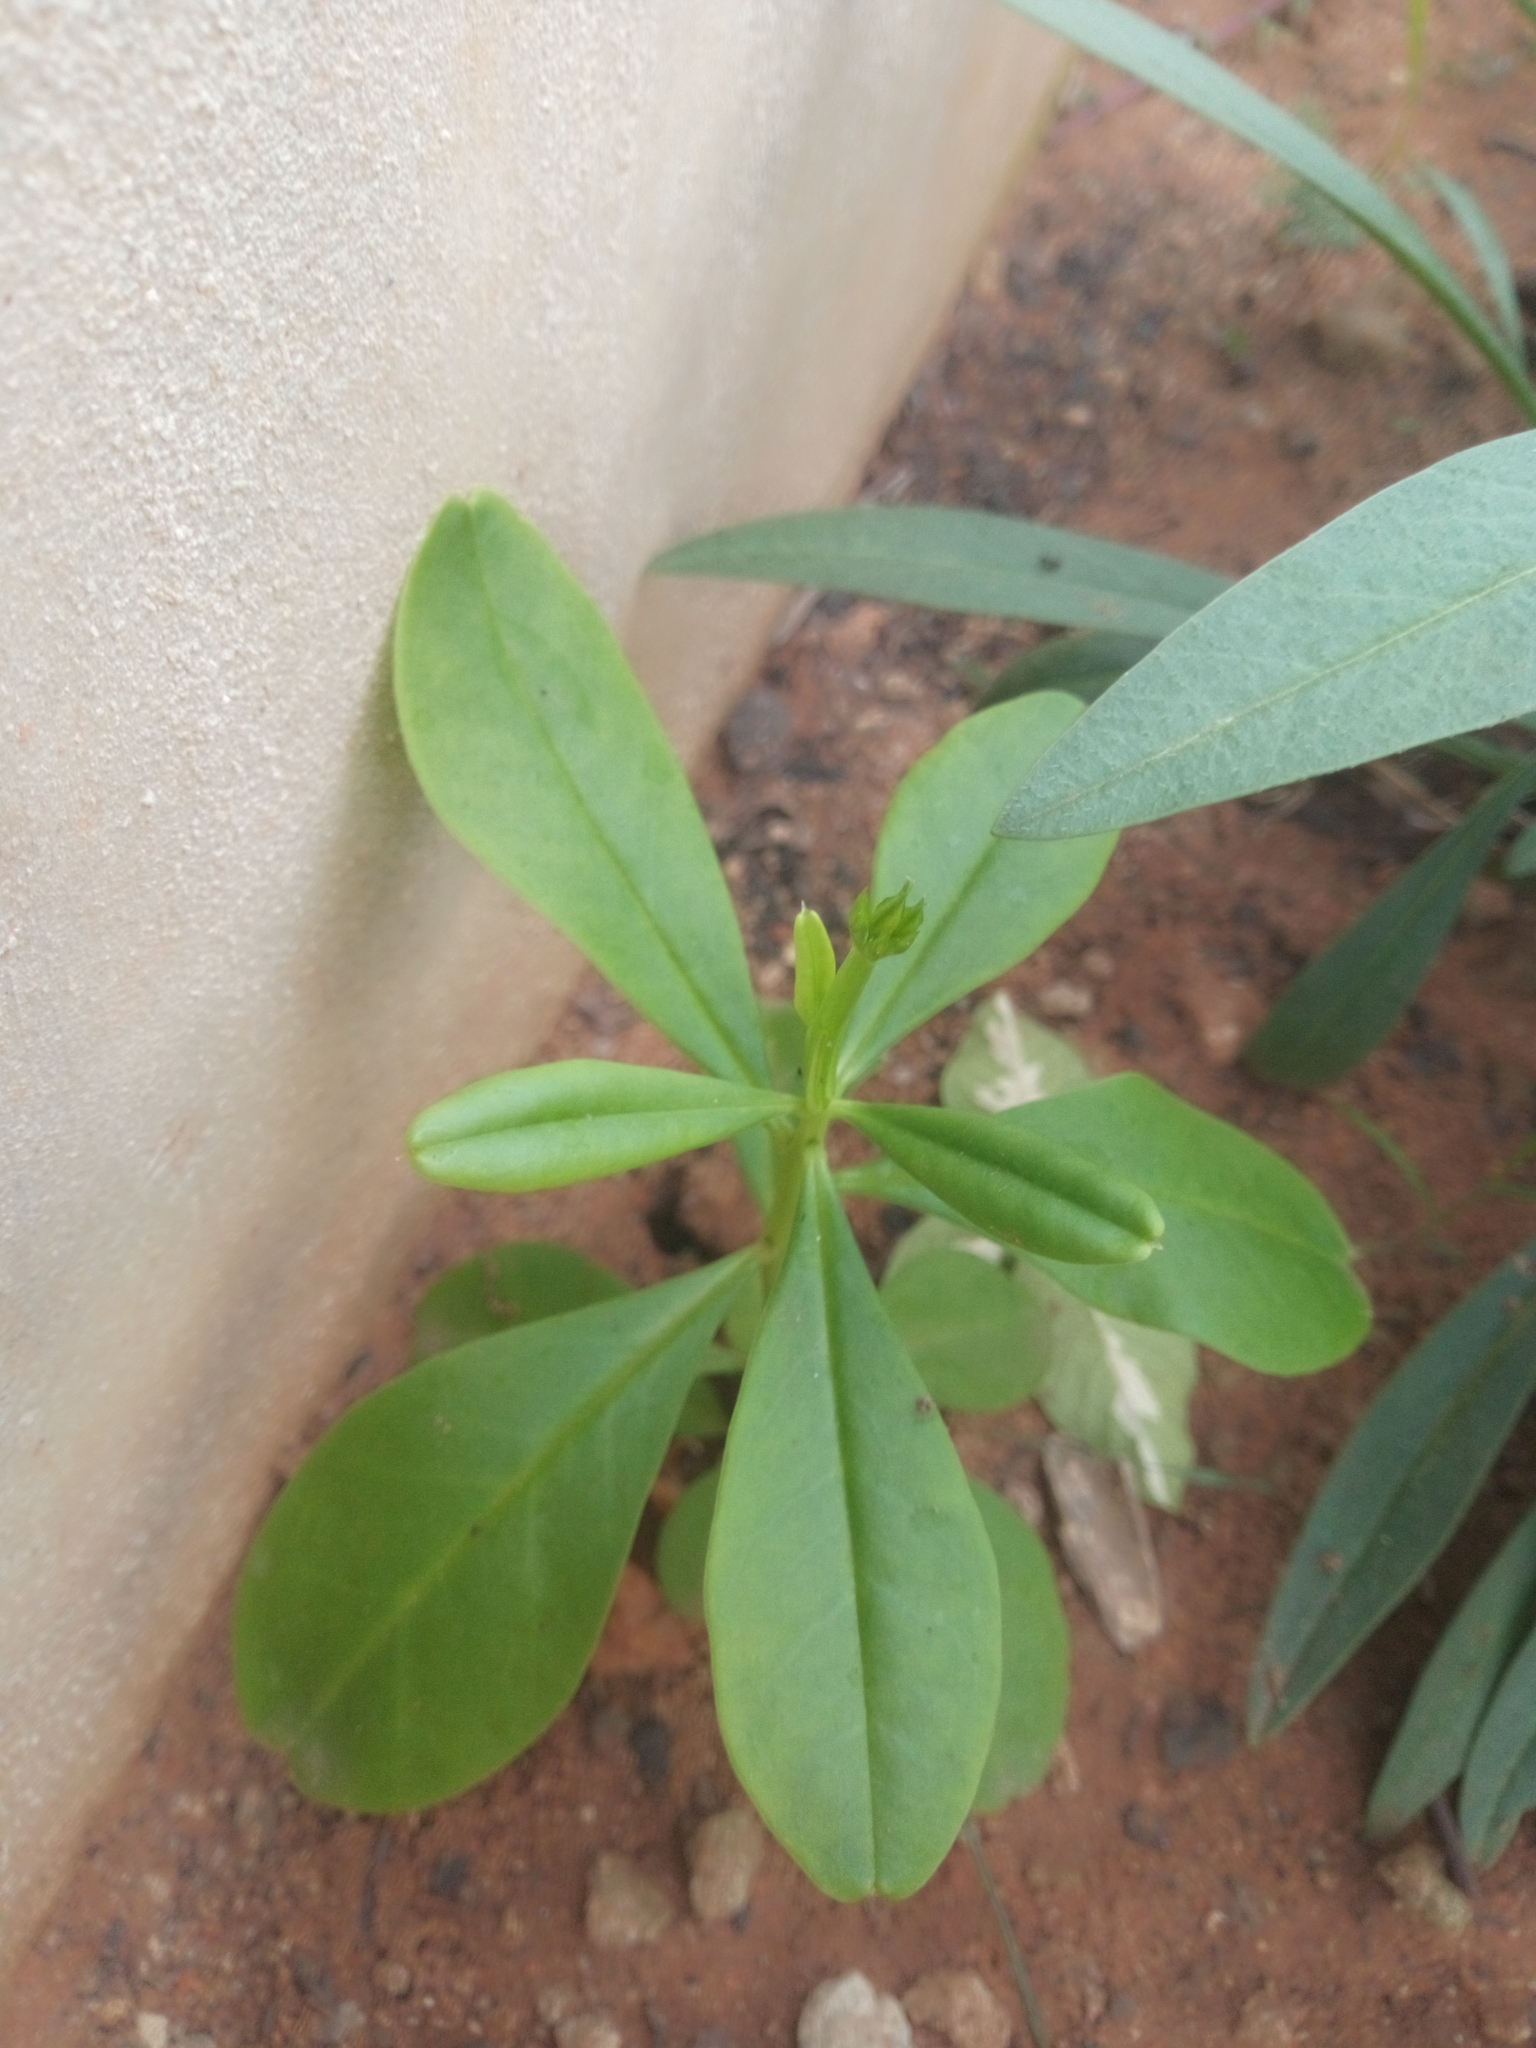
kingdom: Plantae
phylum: Tracheophyta
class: Magnoliopsida
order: Caryophyllales
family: Talinaceae
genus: Talinum
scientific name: Talinum fruticosum
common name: Verdolaga-francesa
